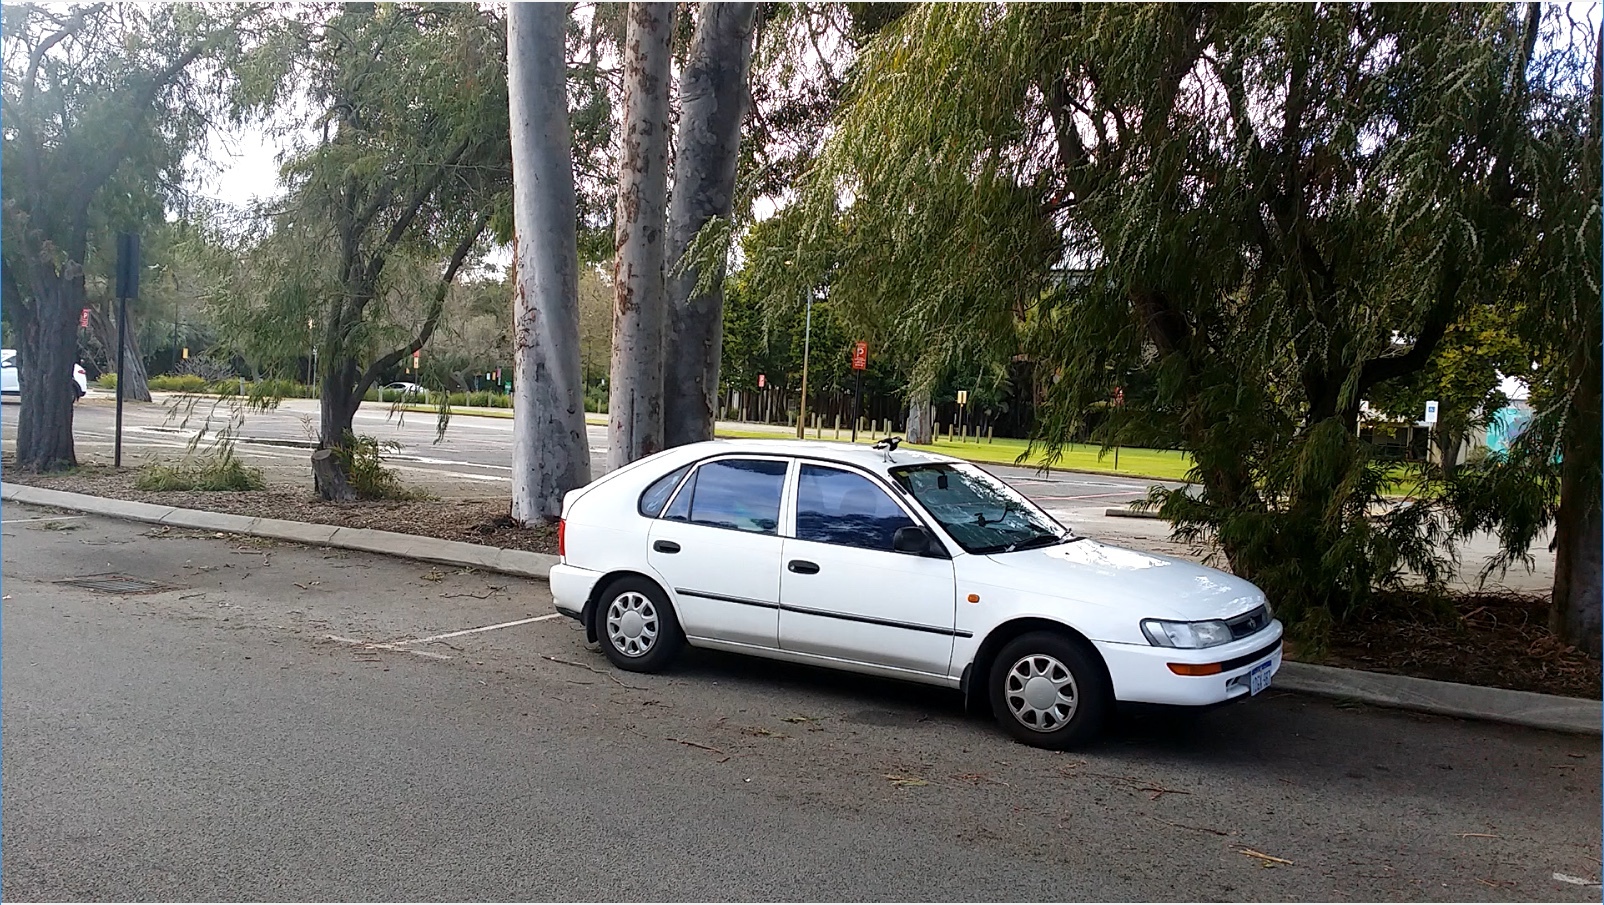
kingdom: Animalia
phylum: Chordata
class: Aves
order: Passeriformes
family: Monarchidae
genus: Grallina
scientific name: Grallina cyanoleuca
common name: Magpie-lark
